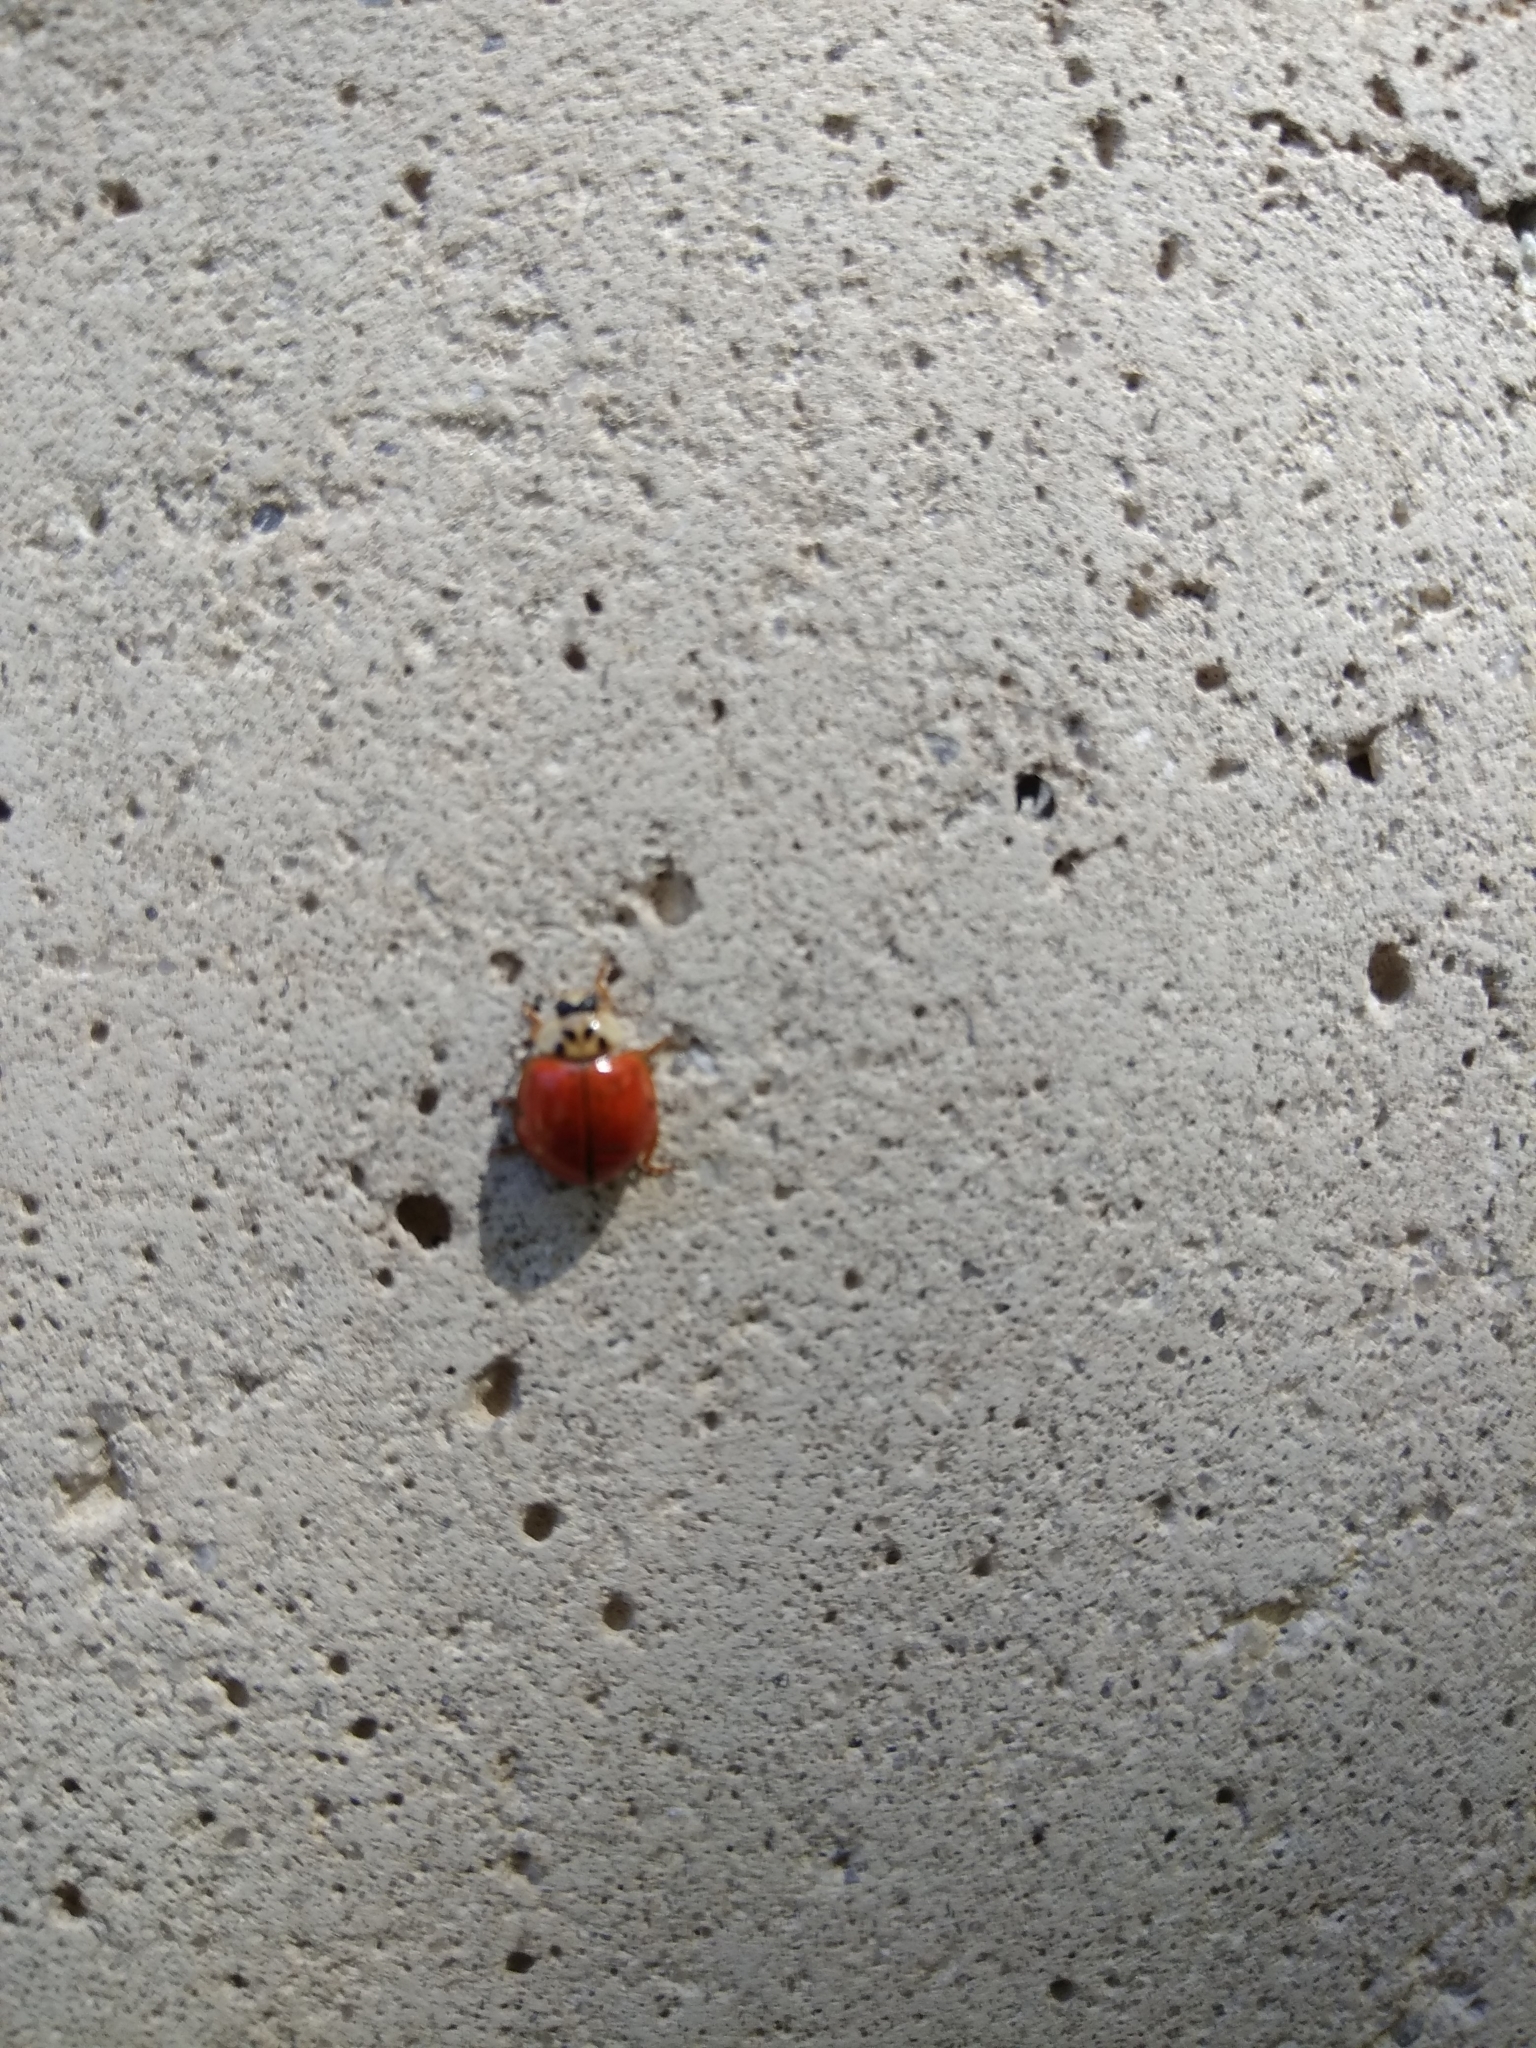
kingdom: Animalia
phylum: Arthropoda
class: Insecta
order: Coleoptera
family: Coccinellidae
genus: Harmonia
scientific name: Harmonia axyridis
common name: Harlequin ladybird
